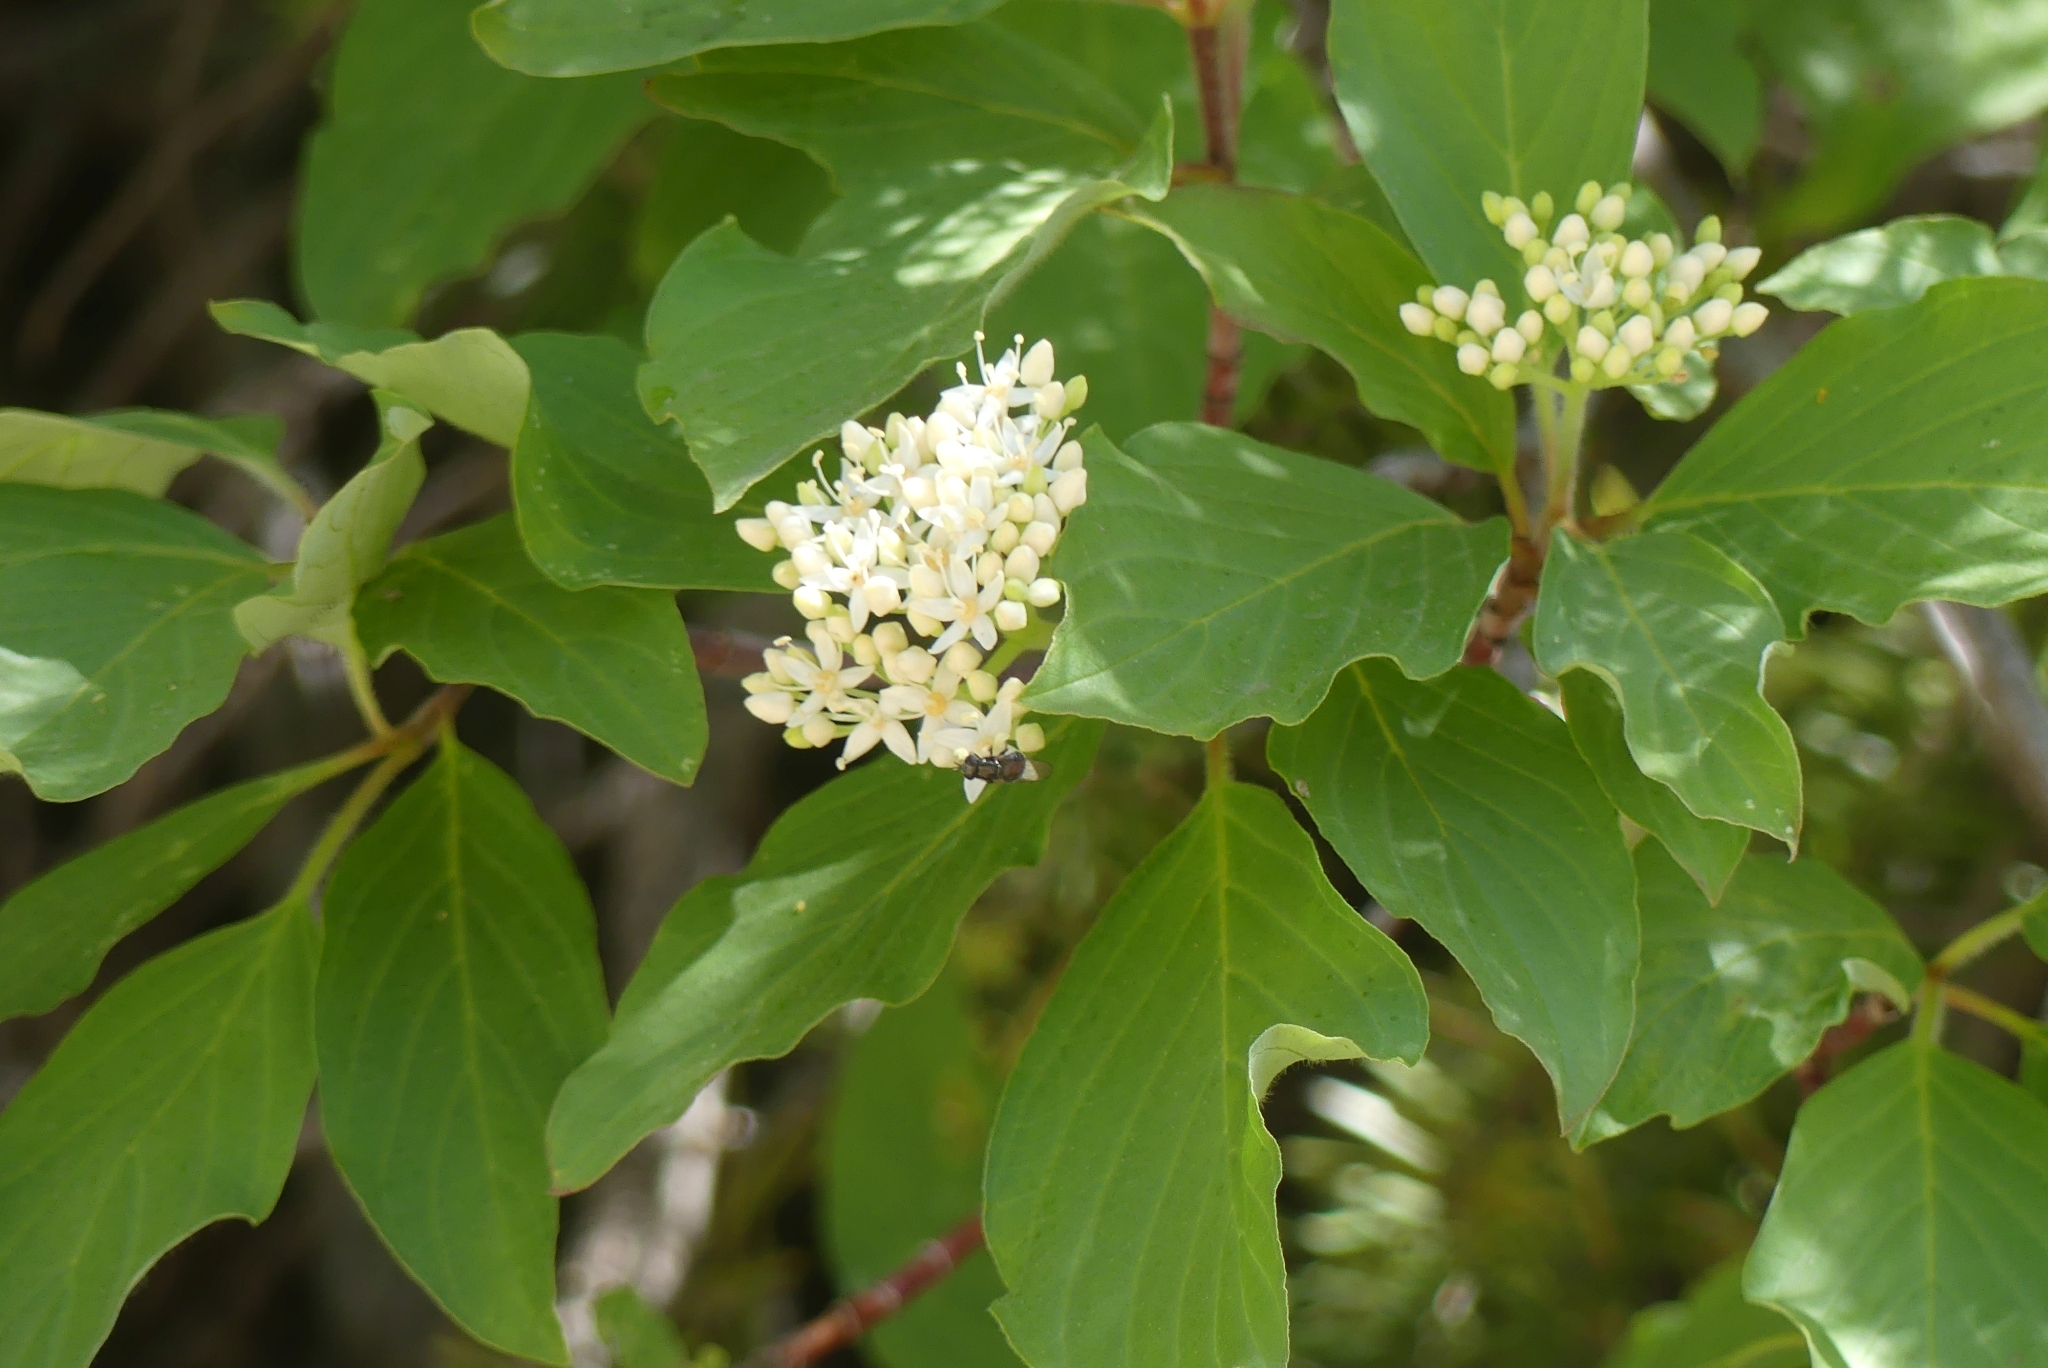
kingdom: Plantae
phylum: Tracheophyta
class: Magnoliopsida
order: Cornales
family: Cornaceae
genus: Cornus
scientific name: Cornus sericea
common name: Red-osier dogwood
